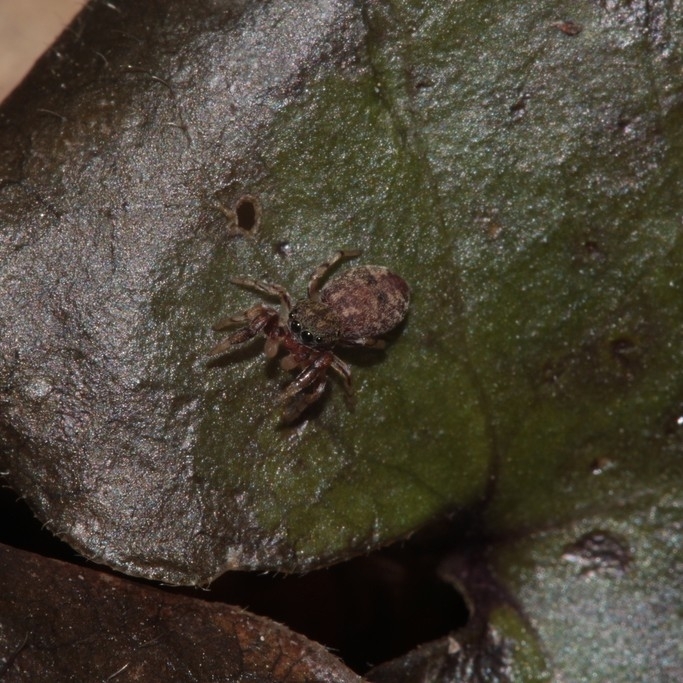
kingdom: Animalia
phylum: Arthropoda
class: Arachnida
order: Araneae
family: Salticidae
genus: Ballus
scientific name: Ballus chalybeius
